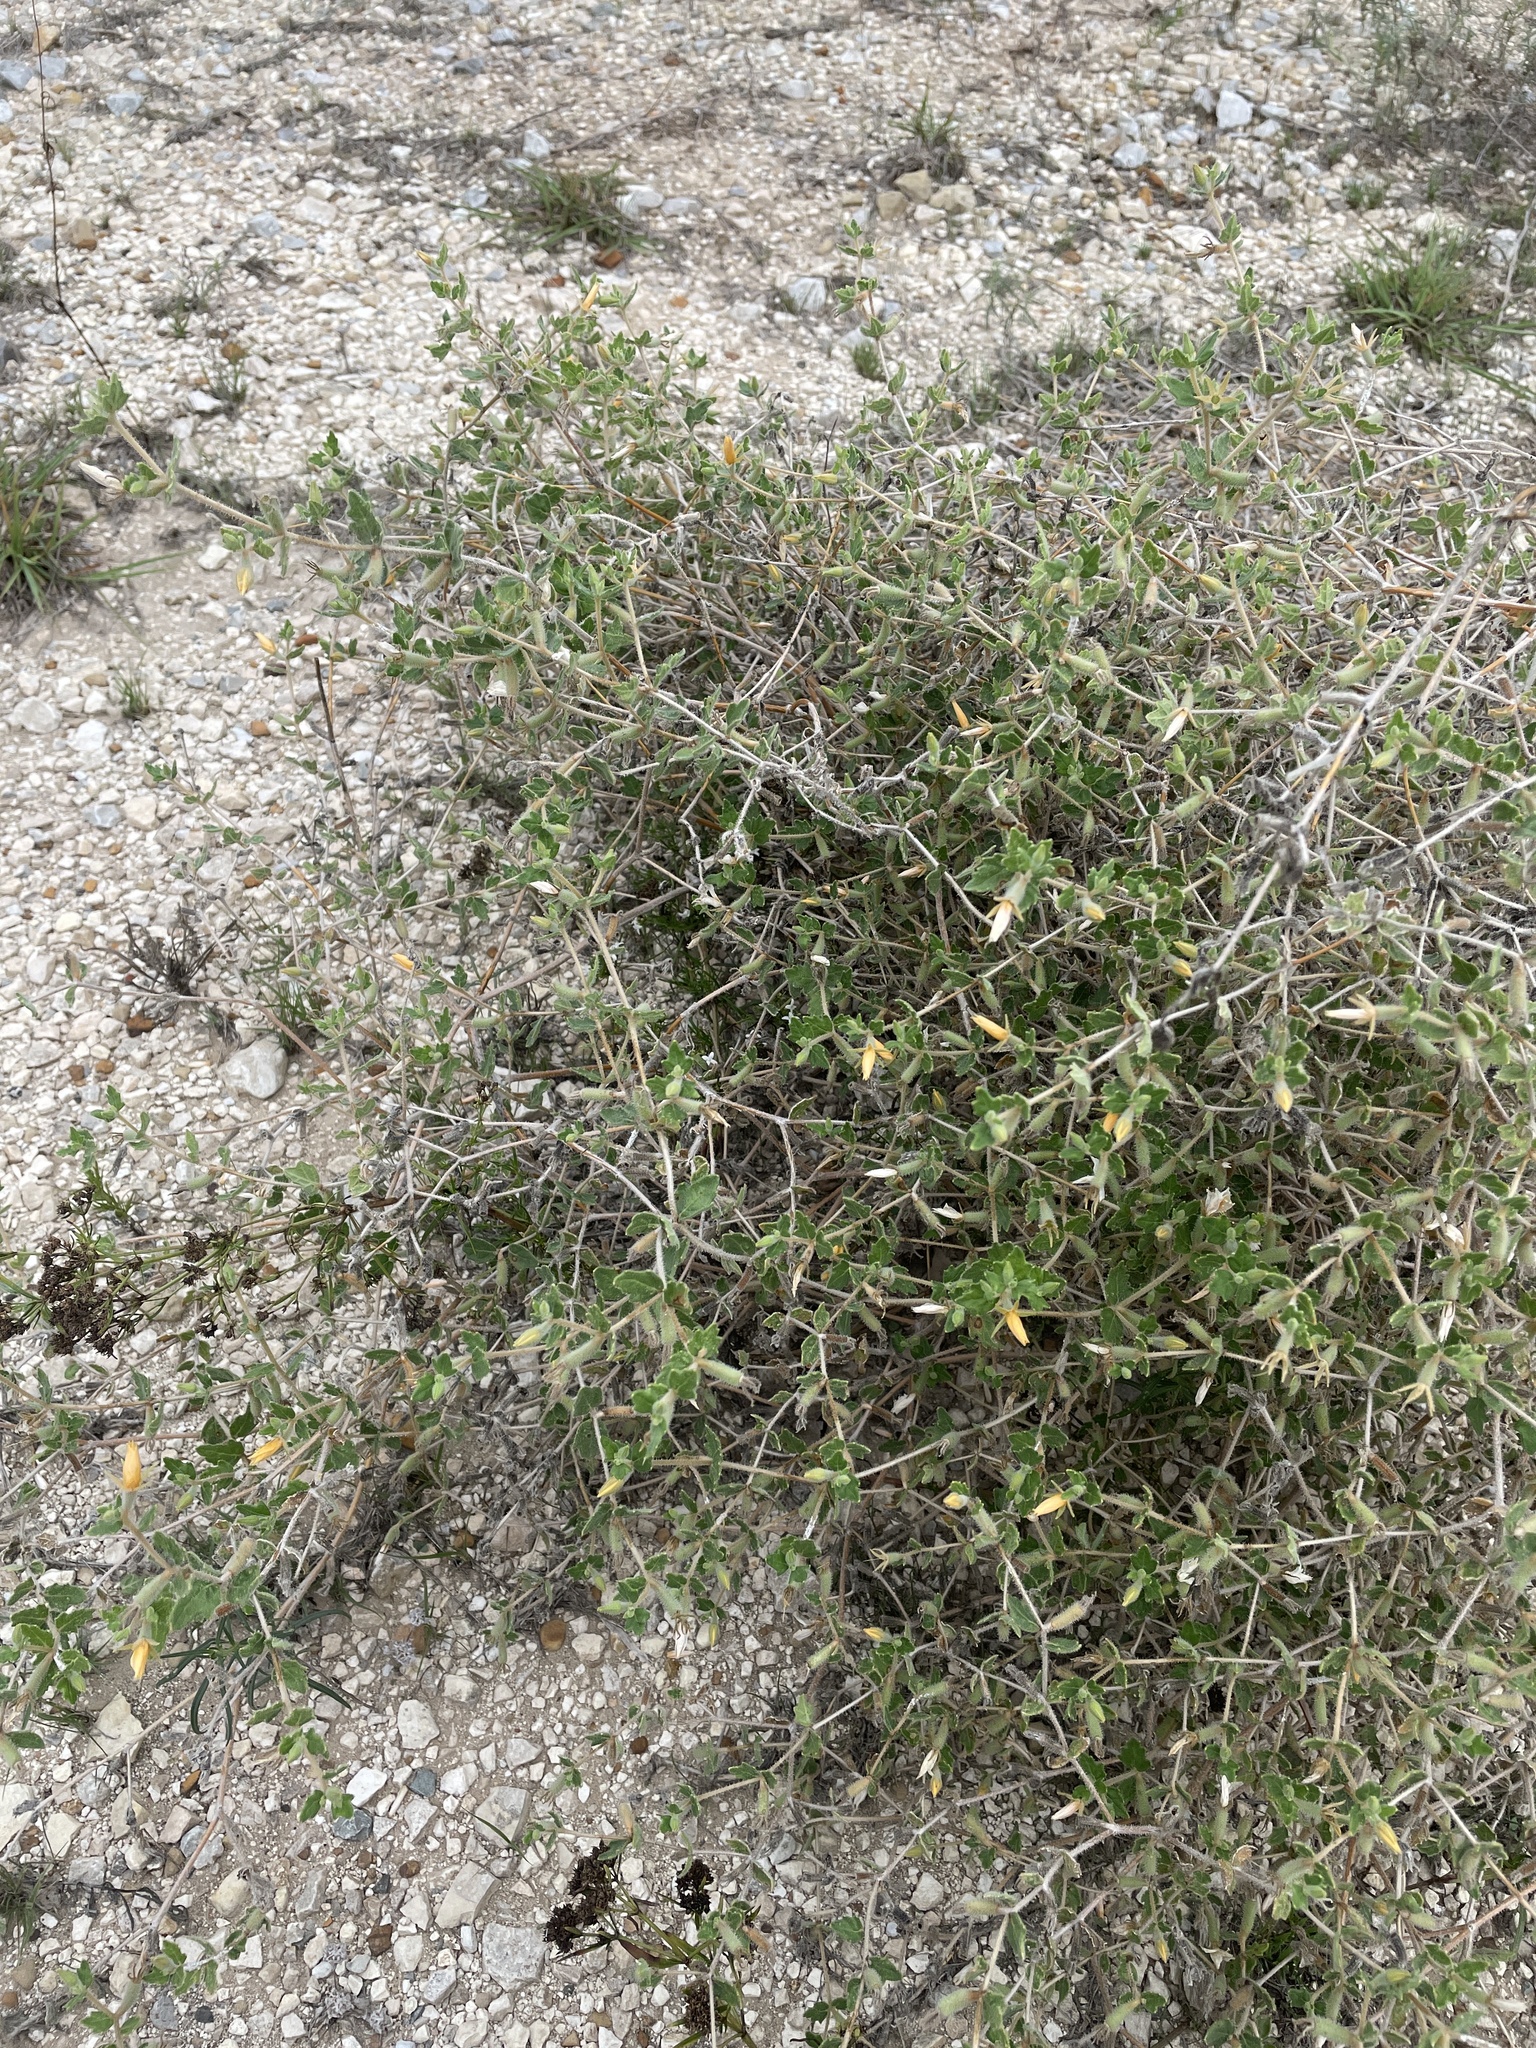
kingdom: Plantae
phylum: Tracheophyta
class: Magnoliopsida
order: Cornales
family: Loasaceae
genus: Mentzelia
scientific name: Mentzelia oligosperma
